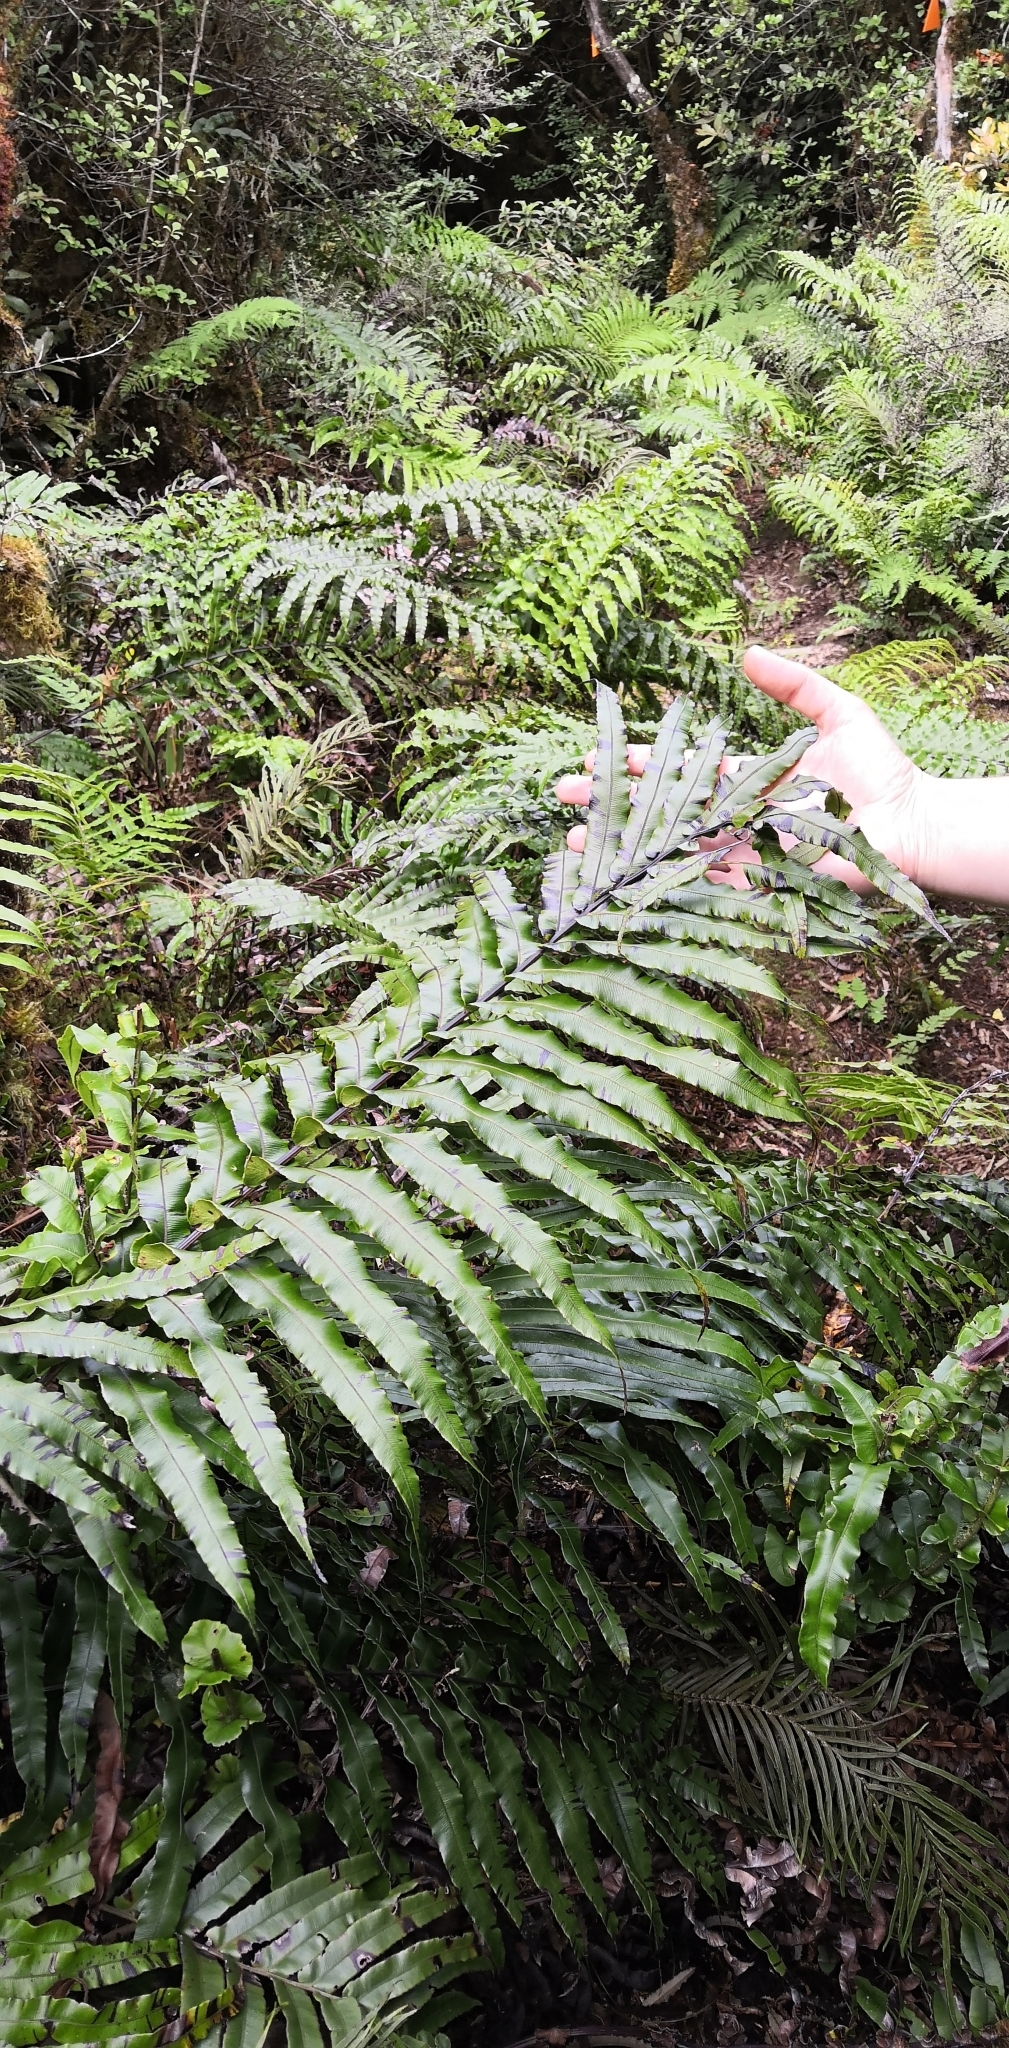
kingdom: Plantae
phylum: Tracheophyta
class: Polypodiopsida
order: Polypodiales
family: Blechnaceae
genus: Parablechnum
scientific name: Parablechnum novae-zelandiae
